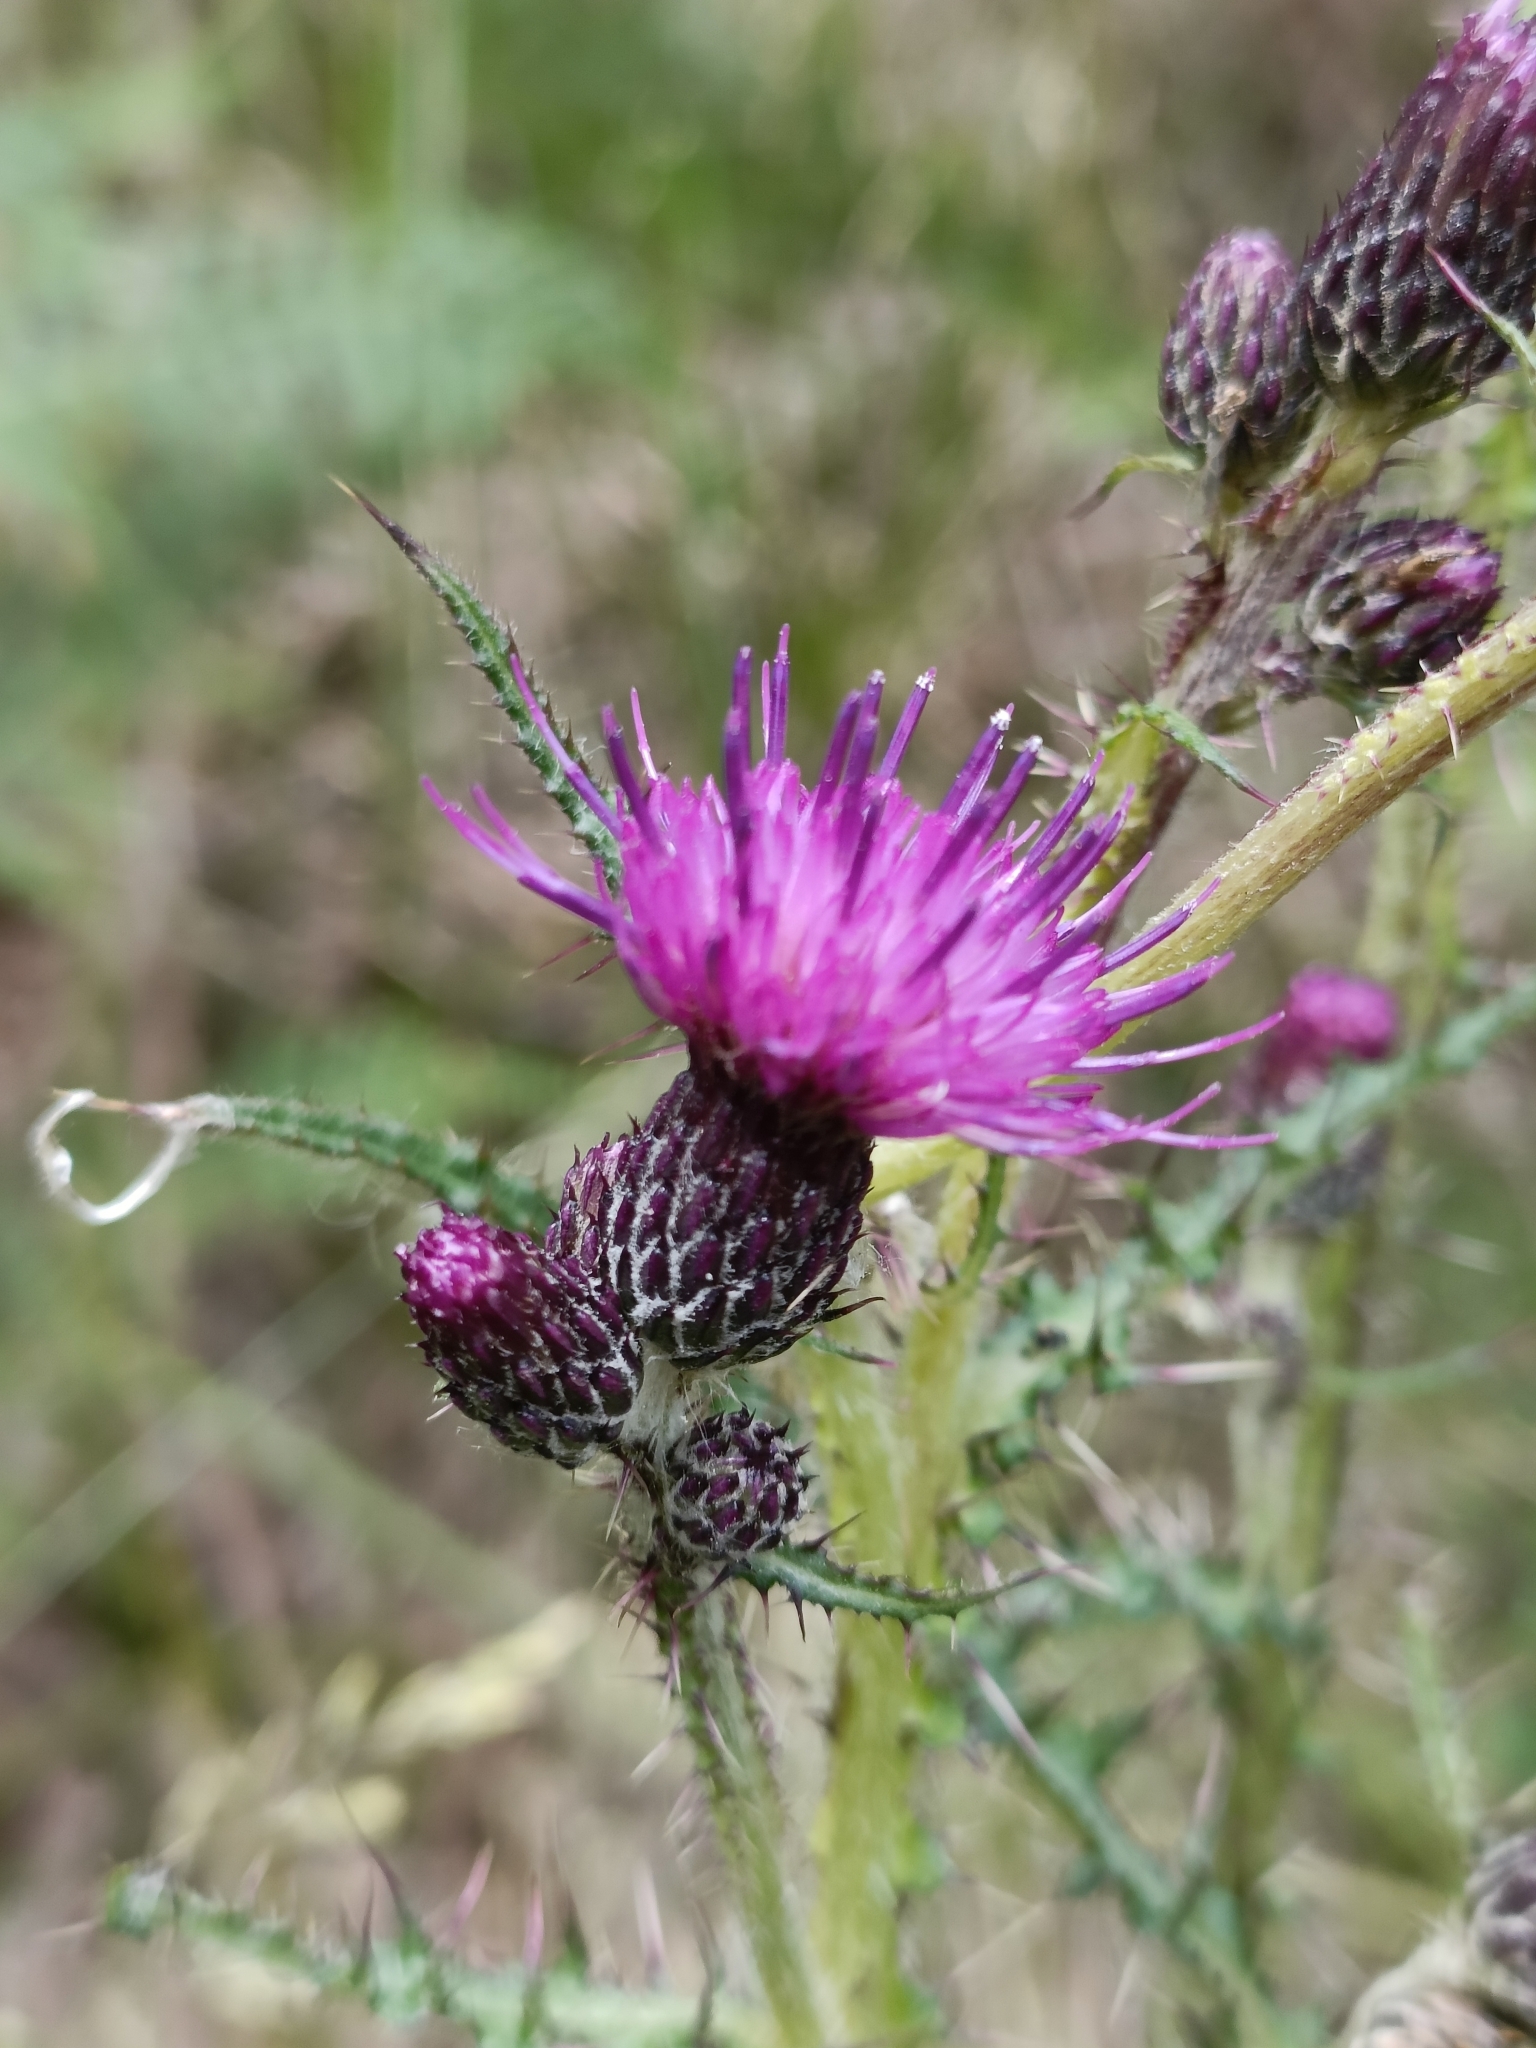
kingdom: Plantae
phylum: Tracheophyta
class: Magnoliopsida
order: Asterales
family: Asteraceae
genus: Cirsium
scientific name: Cirsium palustre
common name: Marsh thistle
